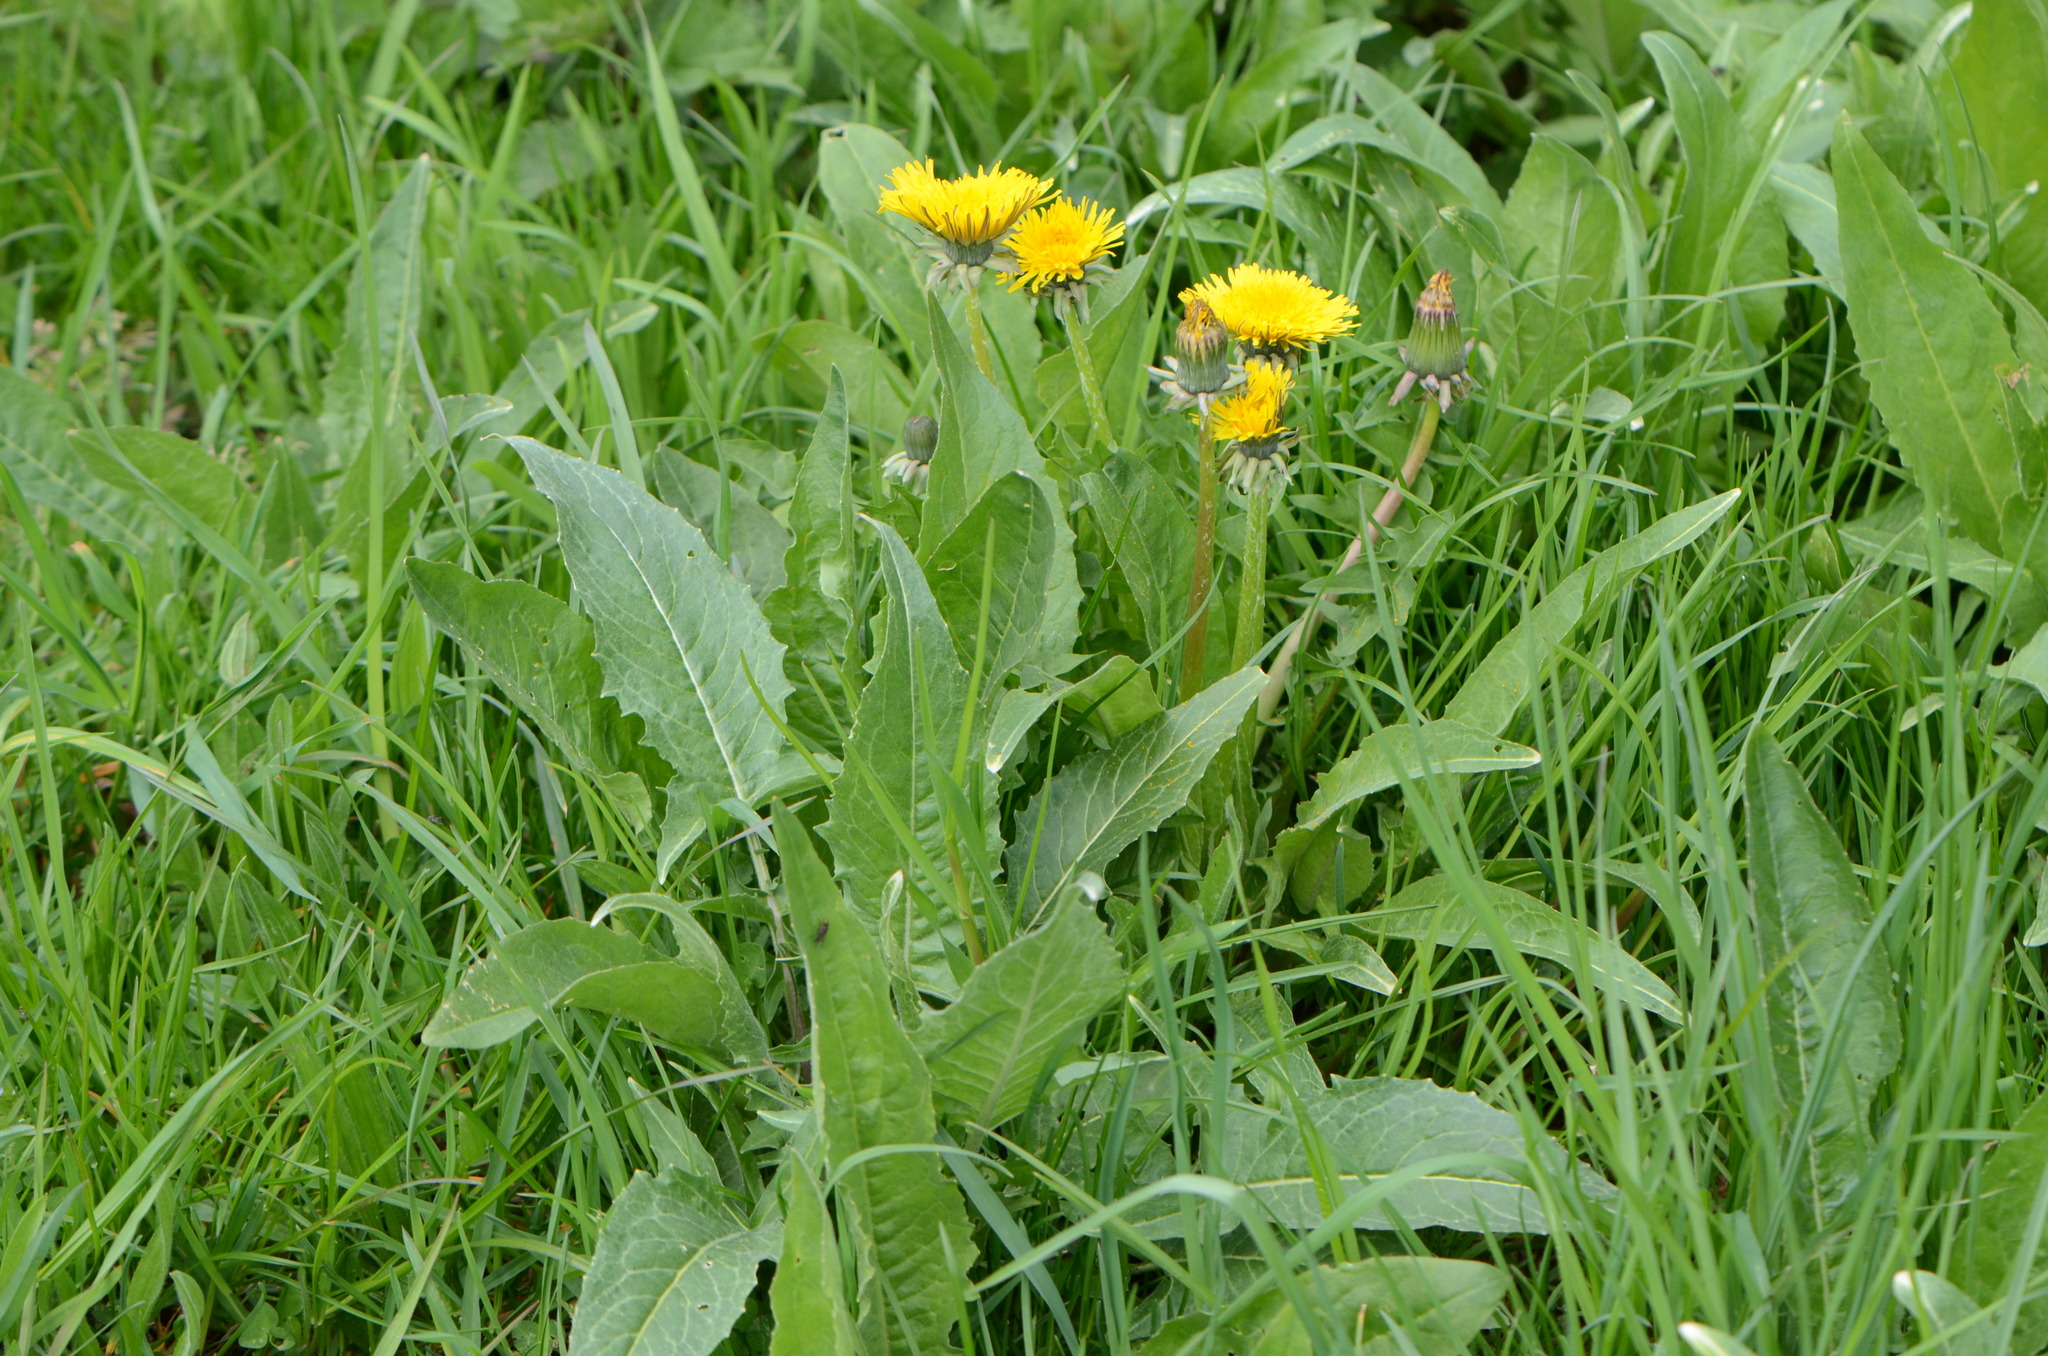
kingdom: Plantae
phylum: Tracheophyta
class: Magnoliopsida
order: Brassicales
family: Brassicaceae
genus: Bunias
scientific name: Bunias orientalis
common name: Warty-cabbage
